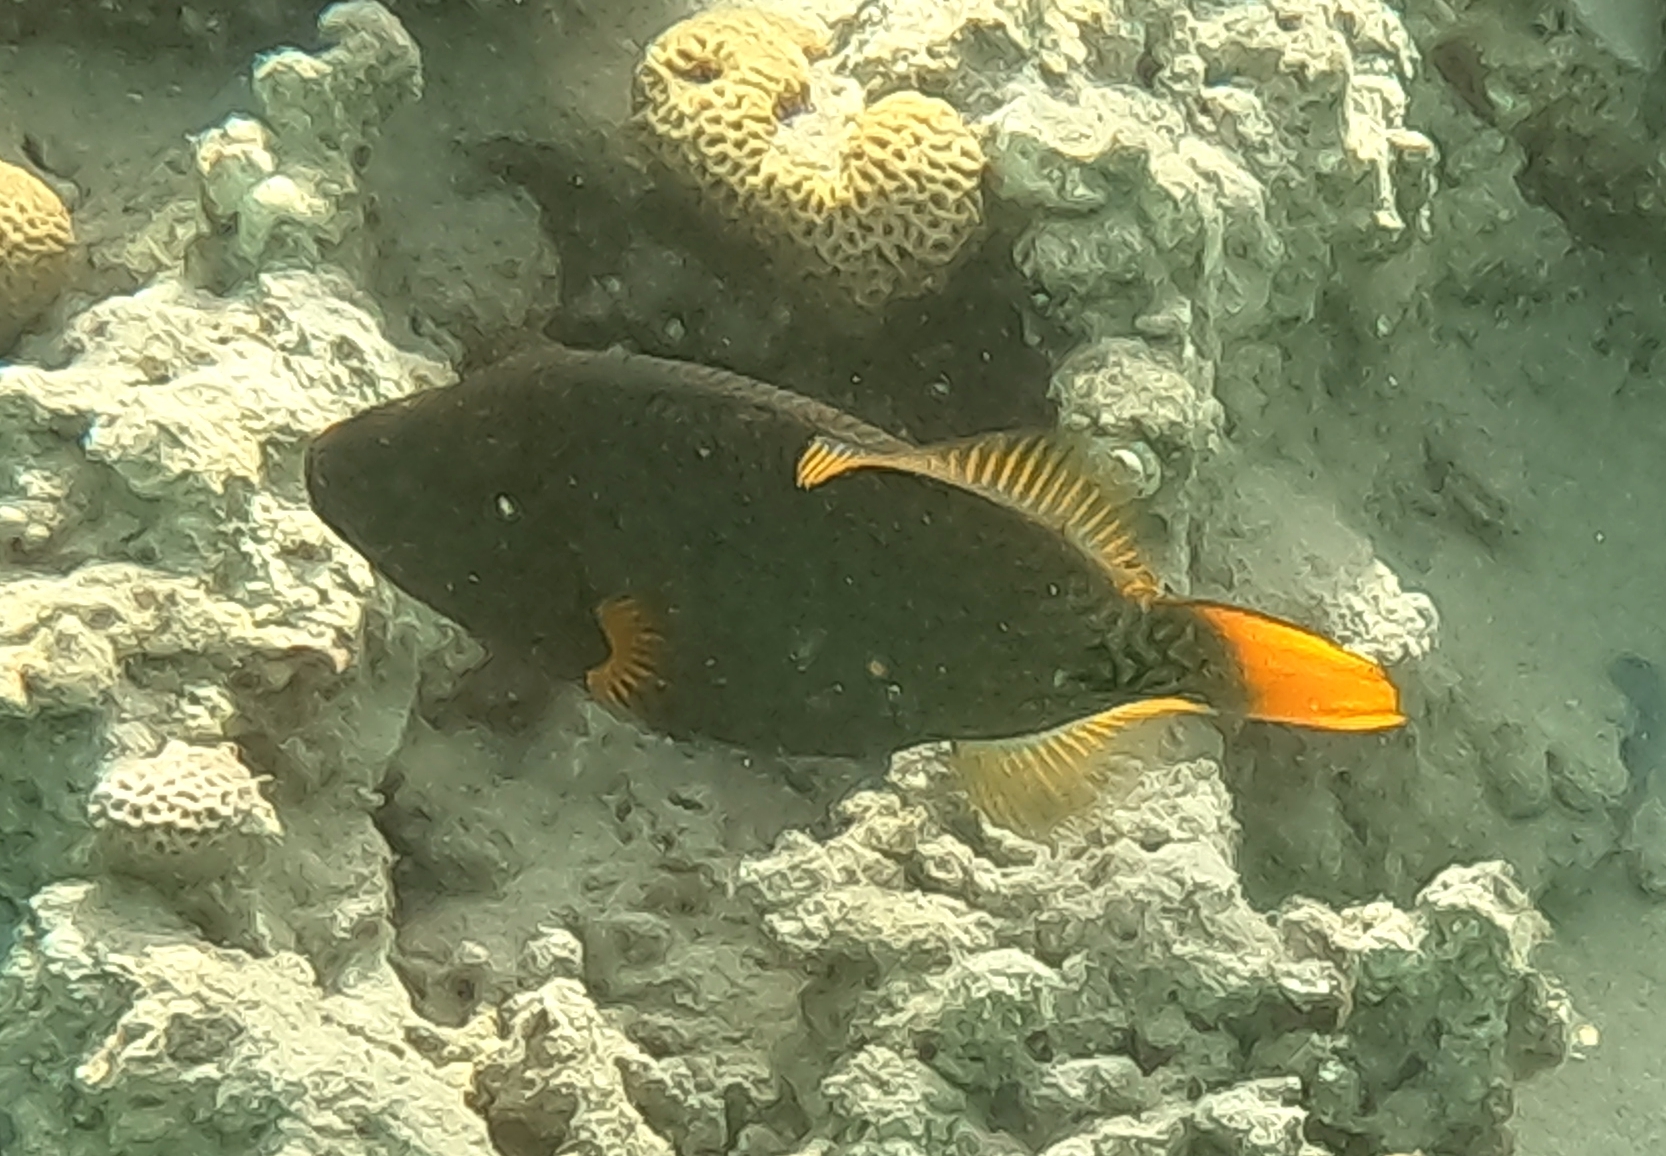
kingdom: Animalia
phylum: Chordata
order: Tetraodontiformes
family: Balistidae
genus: Balistapus
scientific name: Balistapus undulatus
